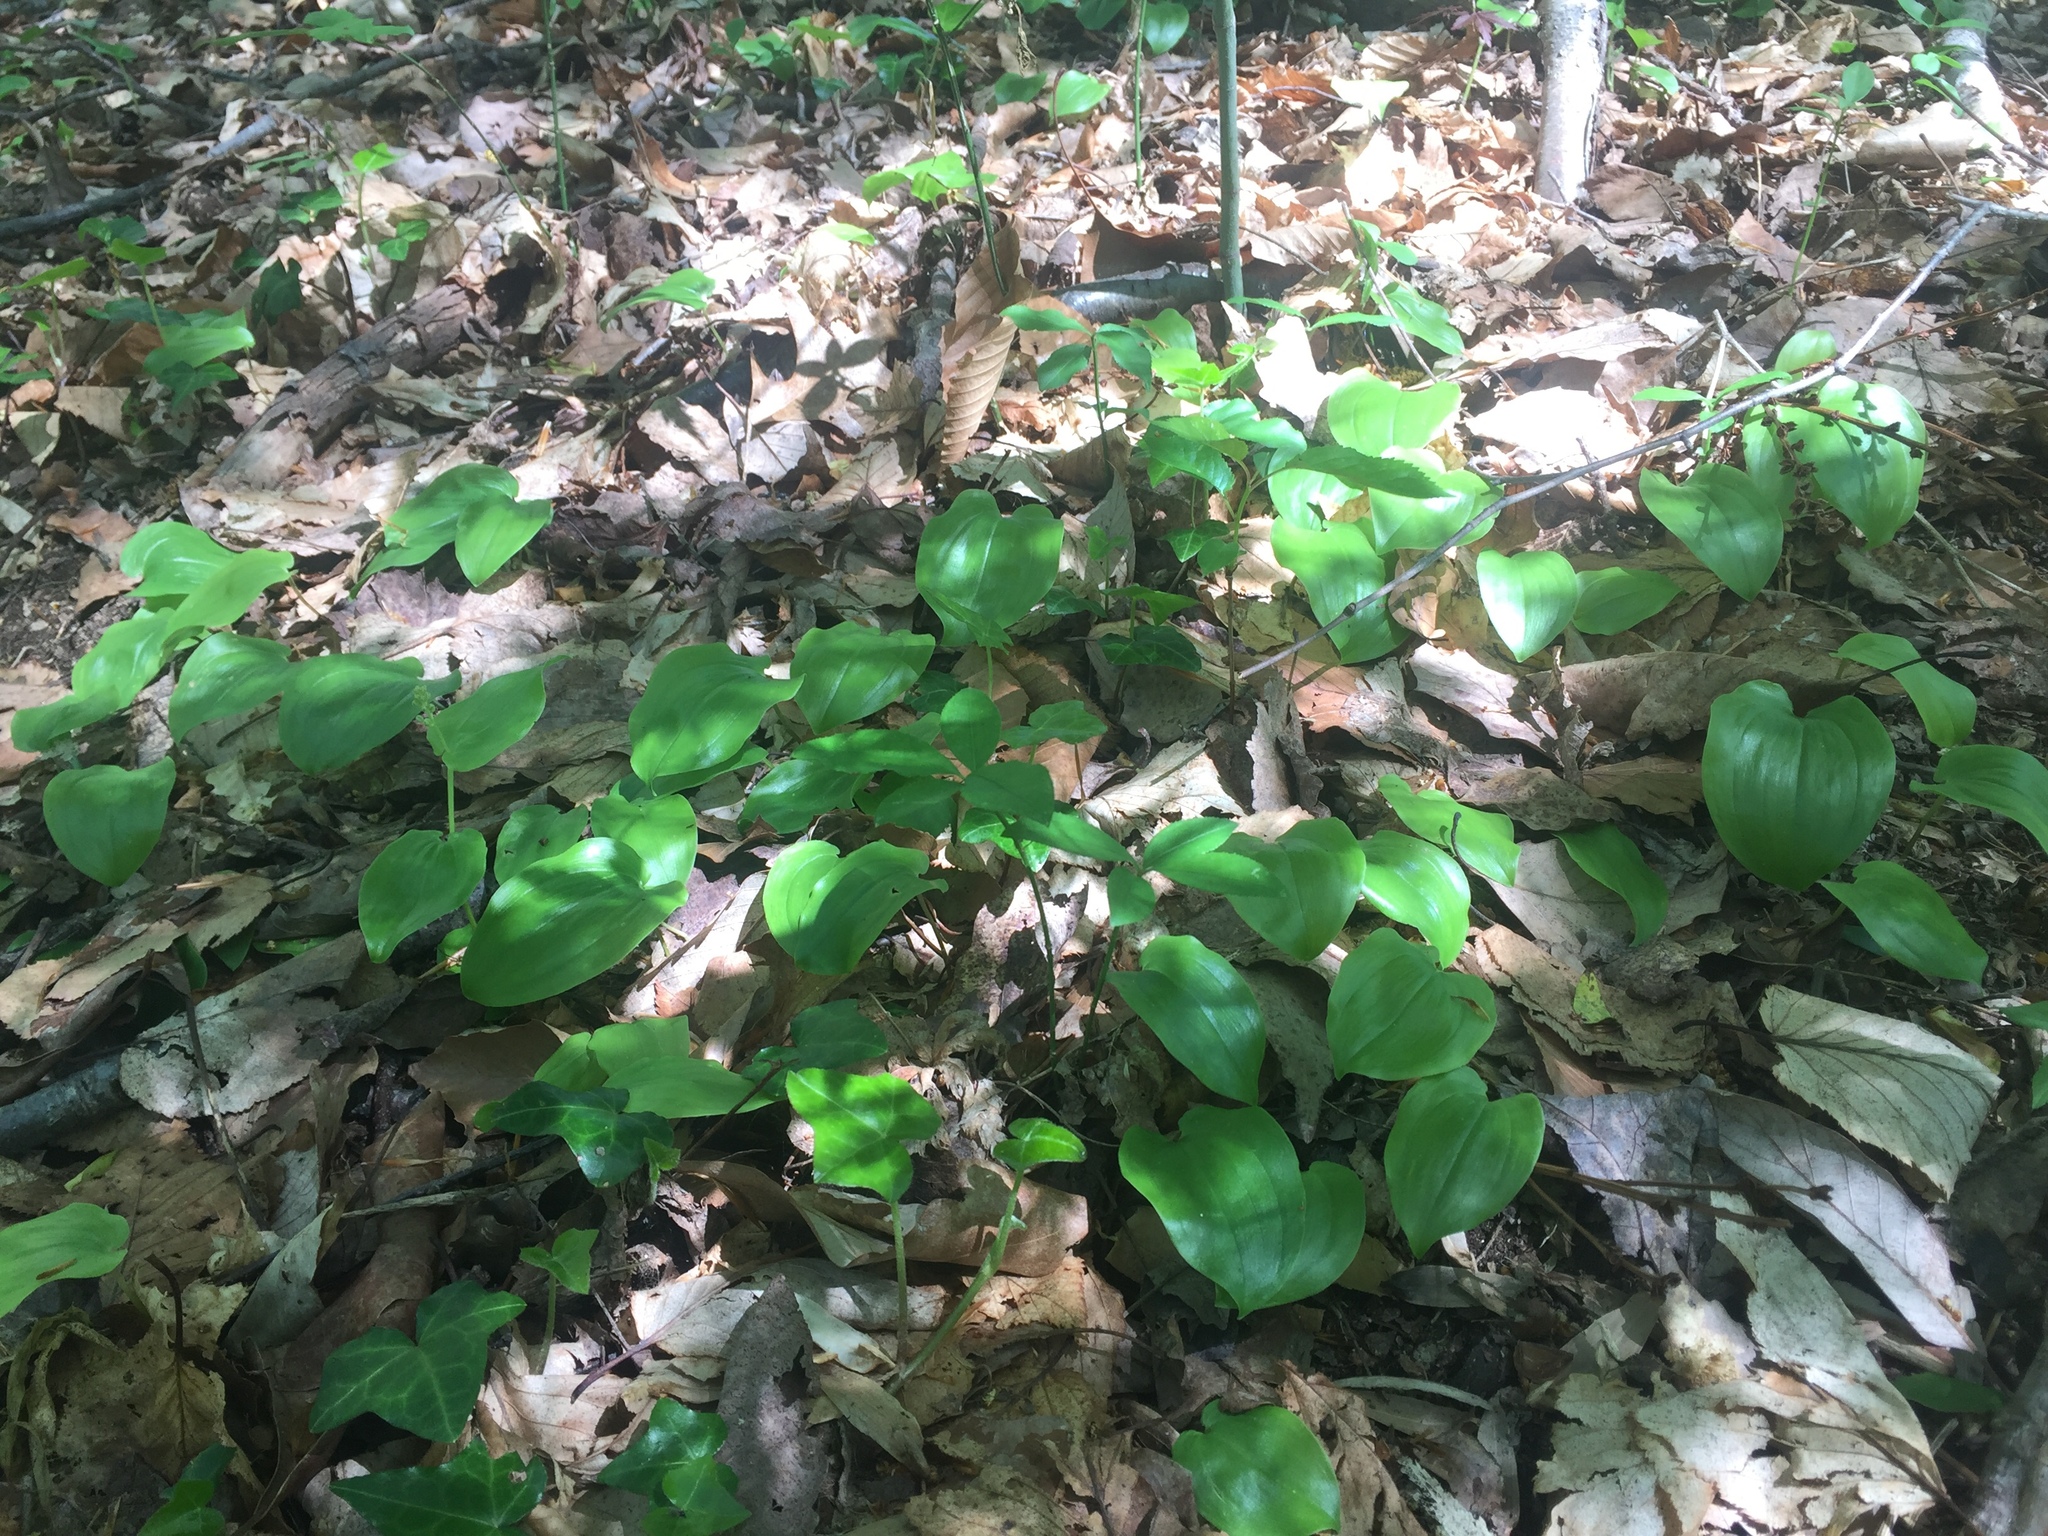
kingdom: Plantae
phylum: Tracheophyta
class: Liliopsida
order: Asparagales
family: Asparagaceae
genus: Maianthemum
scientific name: Maianthemum canadense
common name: False lily-of-the-valley
